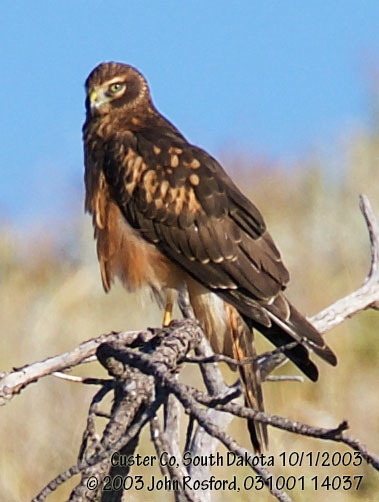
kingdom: Animalia
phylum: Chordata
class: Aves
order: Accipitriformes
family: Accipitridae
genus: Circus
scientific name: Circus cyaneus
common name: Hen harrier
